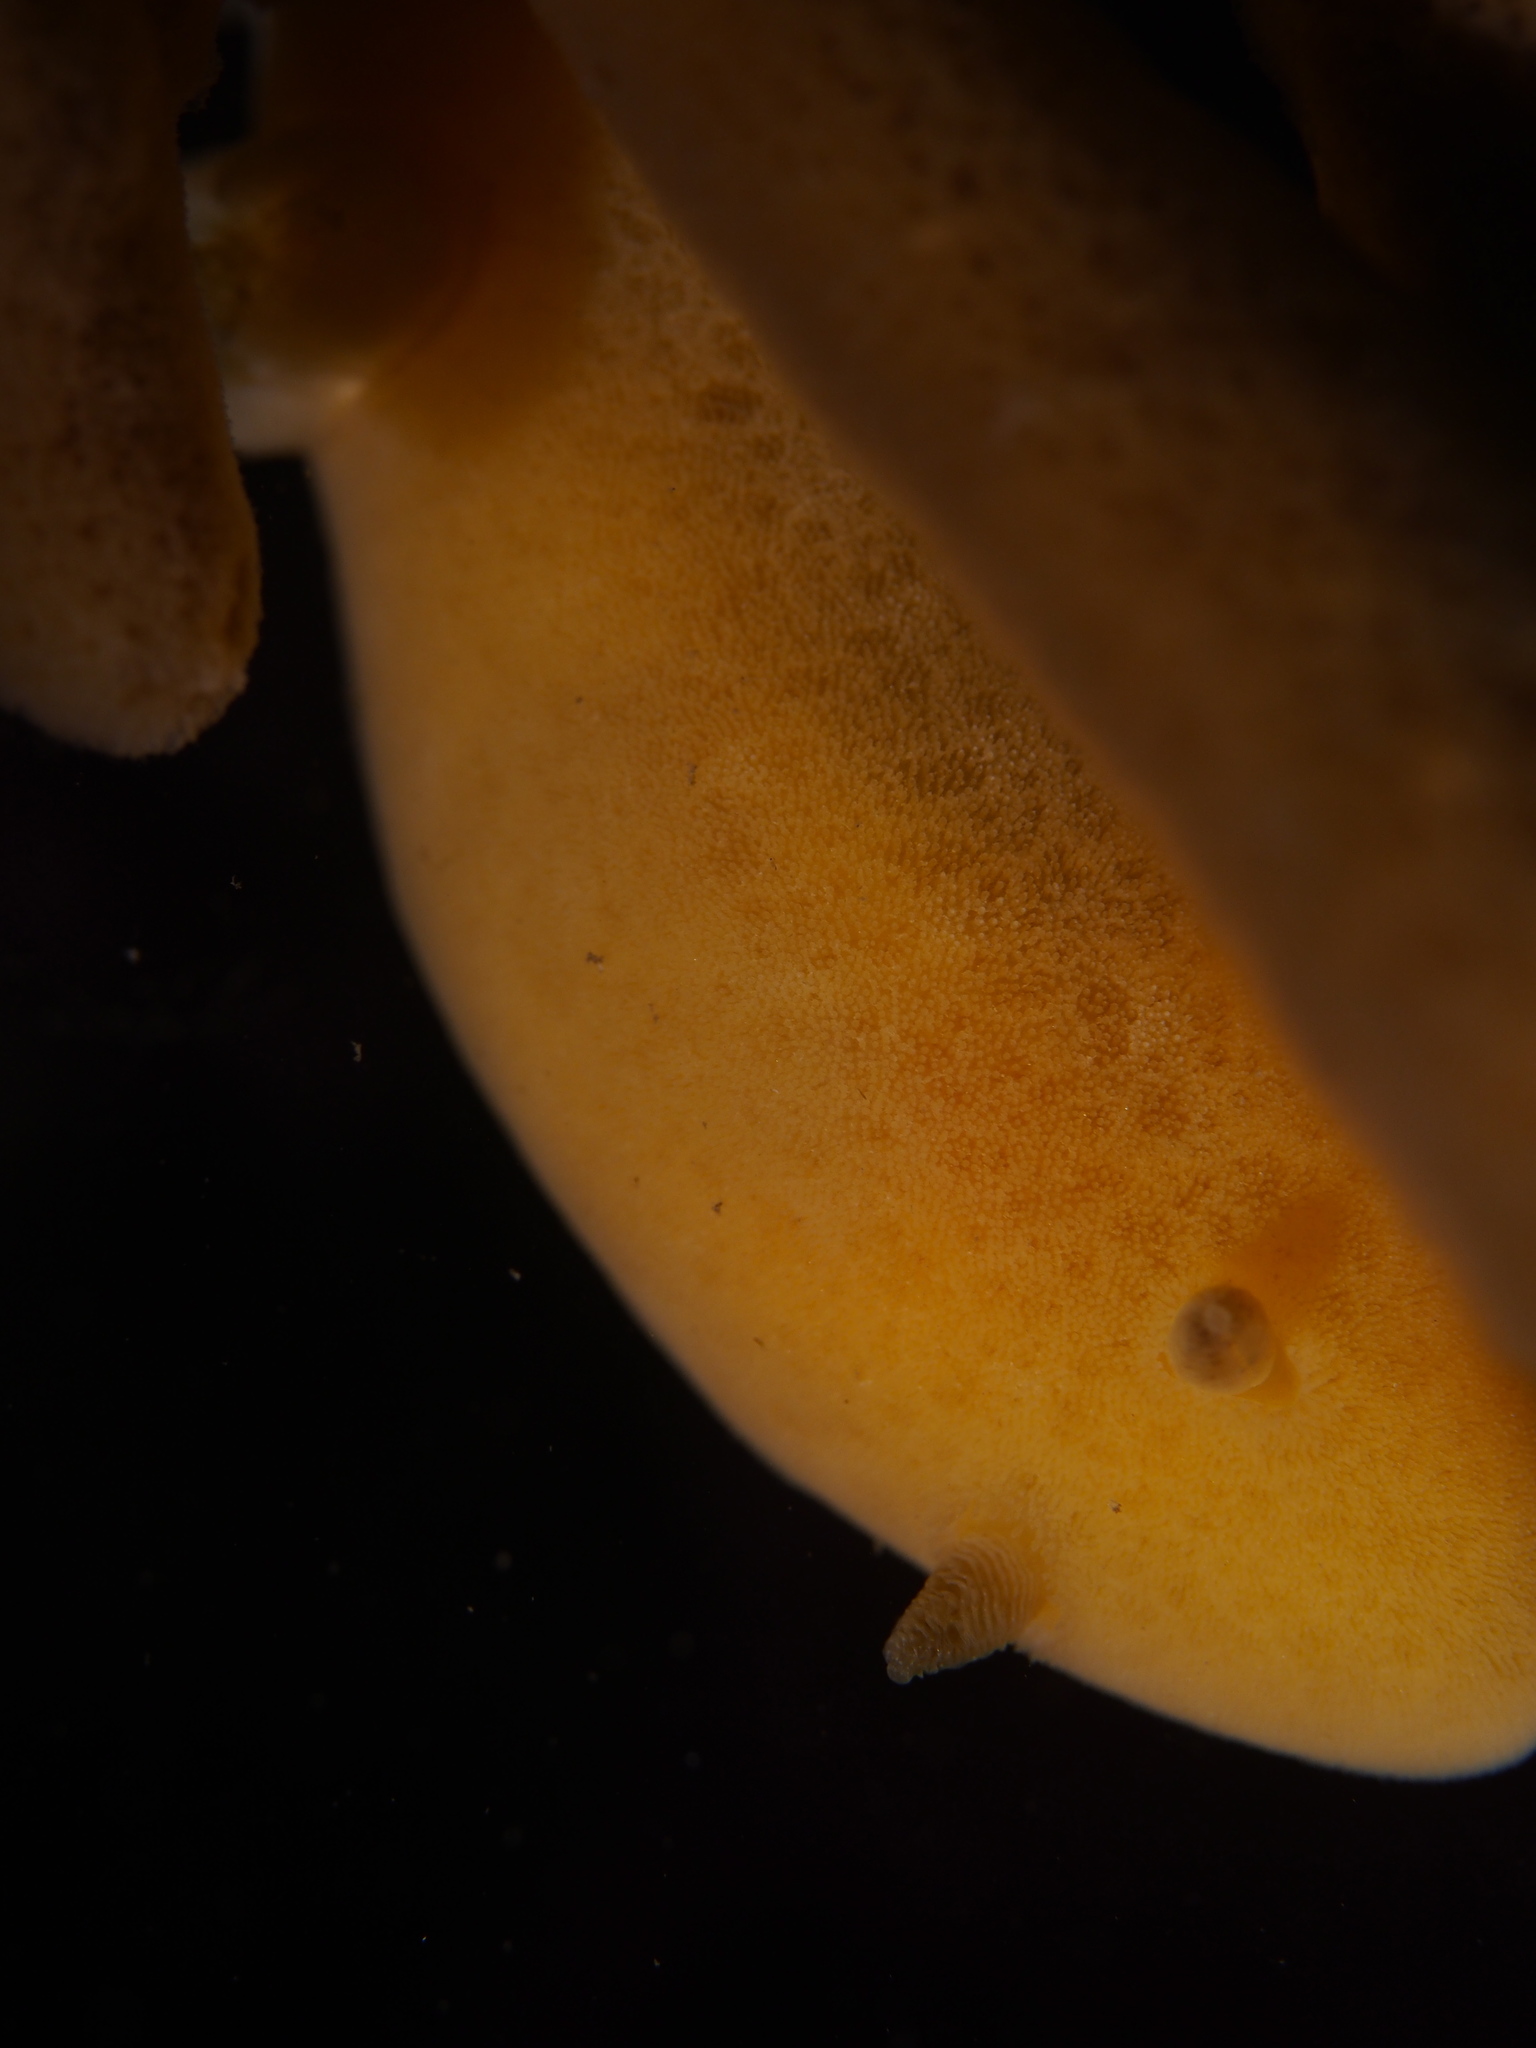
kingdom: Animalia
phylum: Mollusca
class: Gastropoda
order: Nudibranchia
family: Discodorididae
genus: Jorunna
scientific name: Jorunna tomentosa
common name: Grey sea slug
